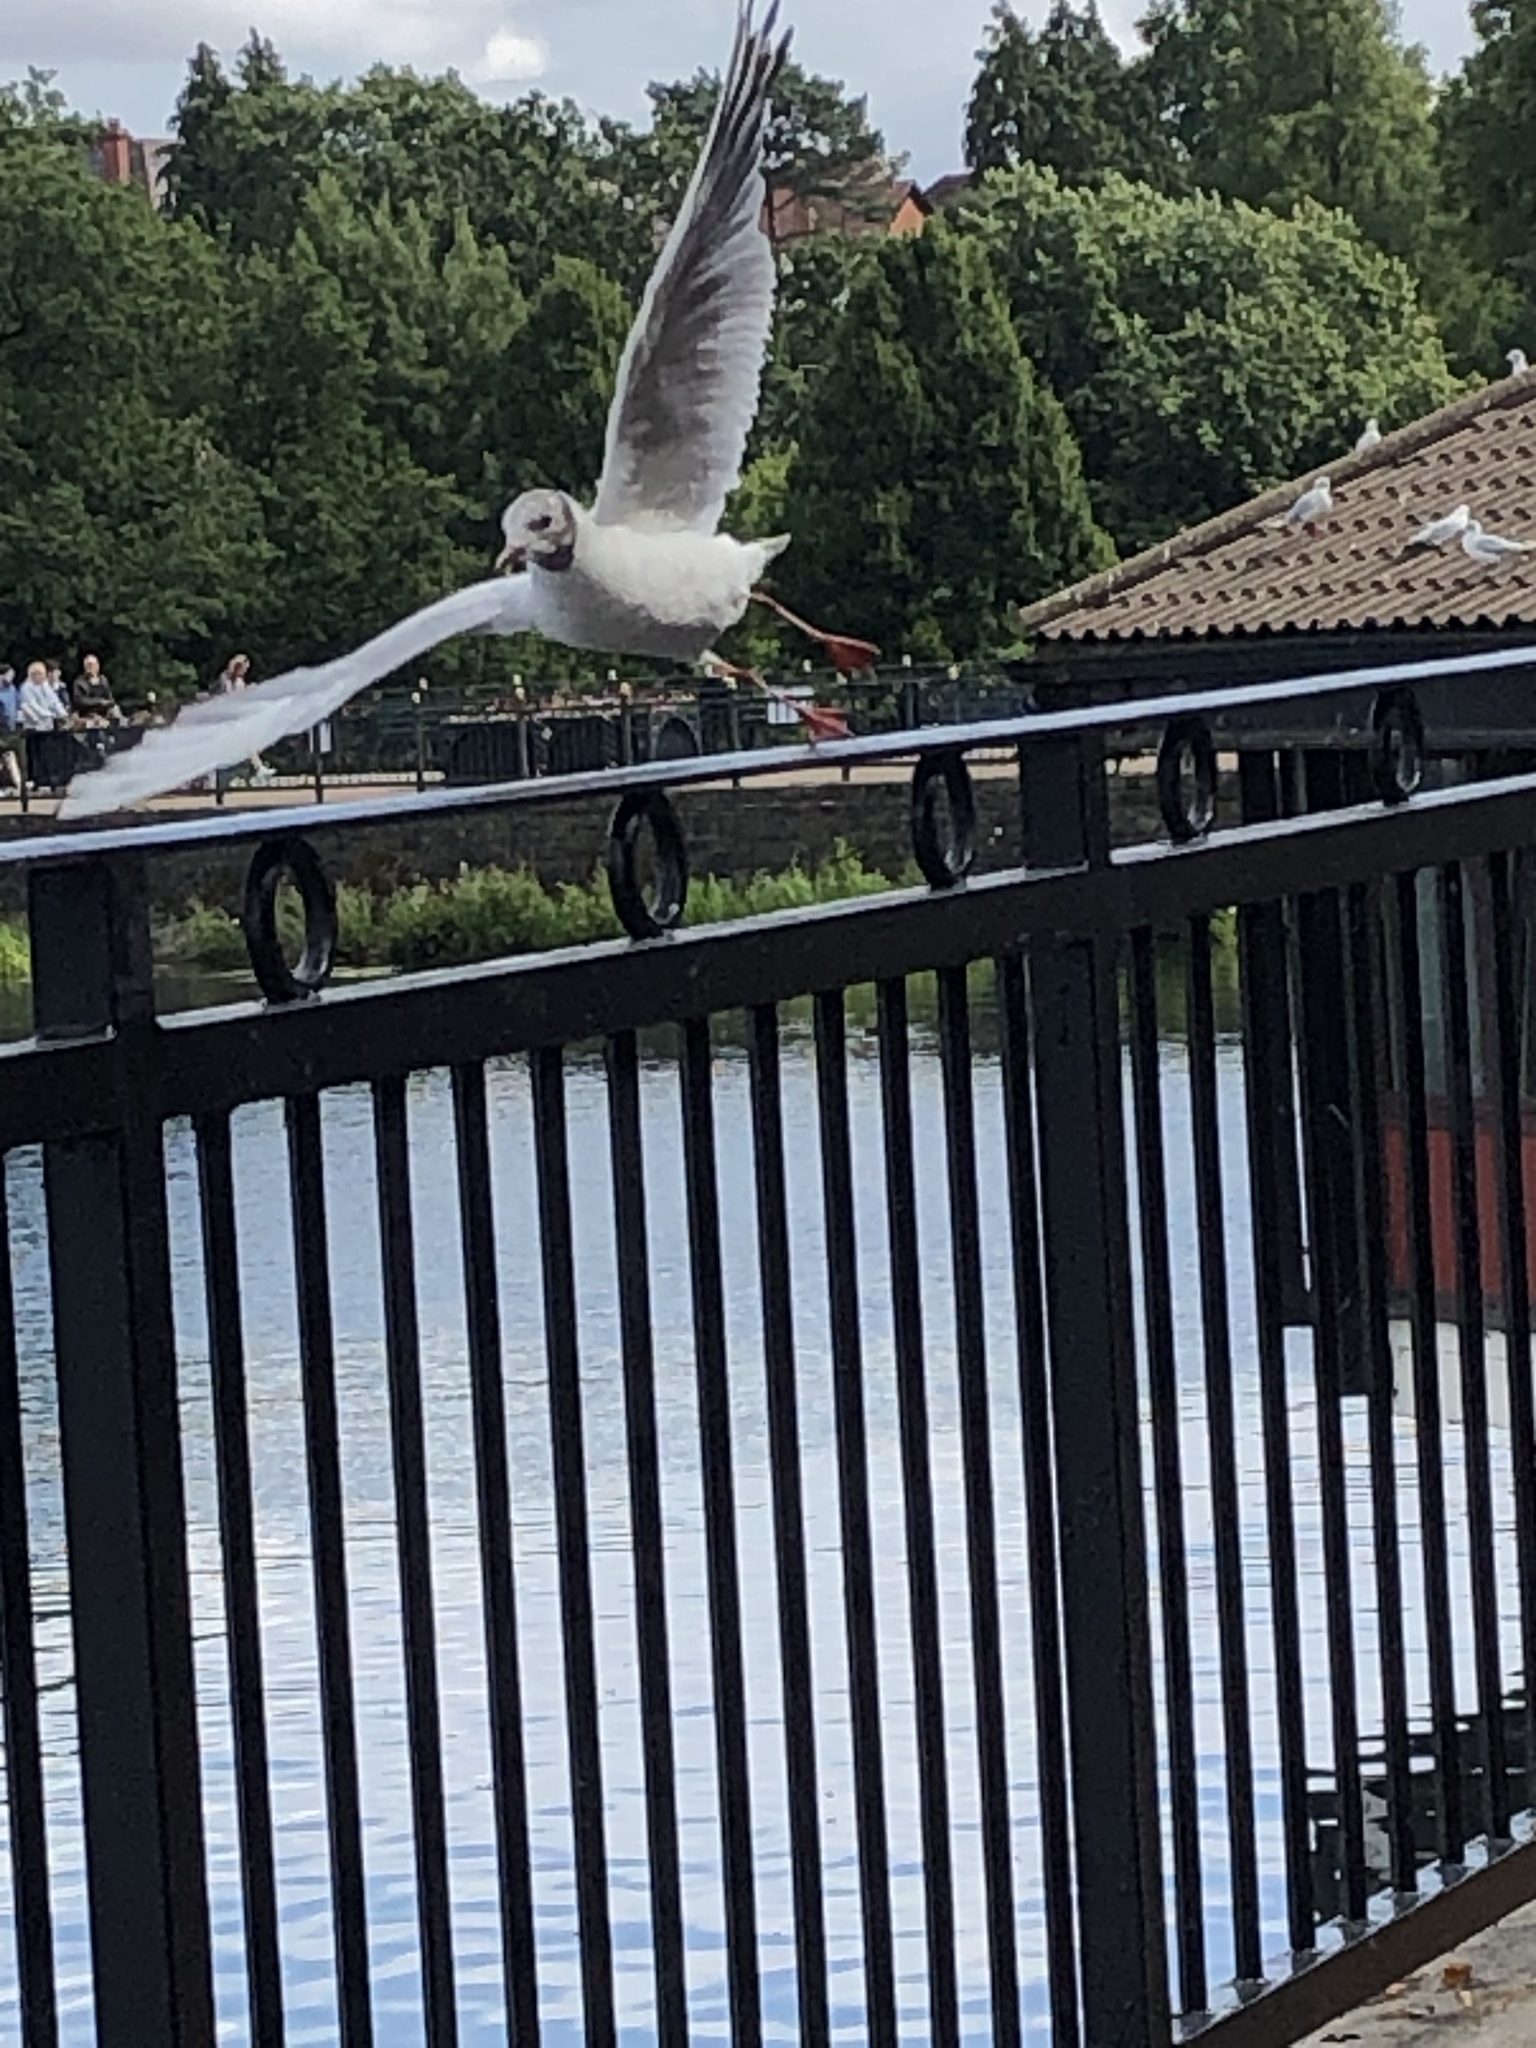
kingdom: Animalia
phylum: Chordata
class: Aves
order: Charadriiformes
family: Laridae
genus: Chroicocephalus
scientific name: Chroicocephalus ridibundus
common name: Black-headed gull
